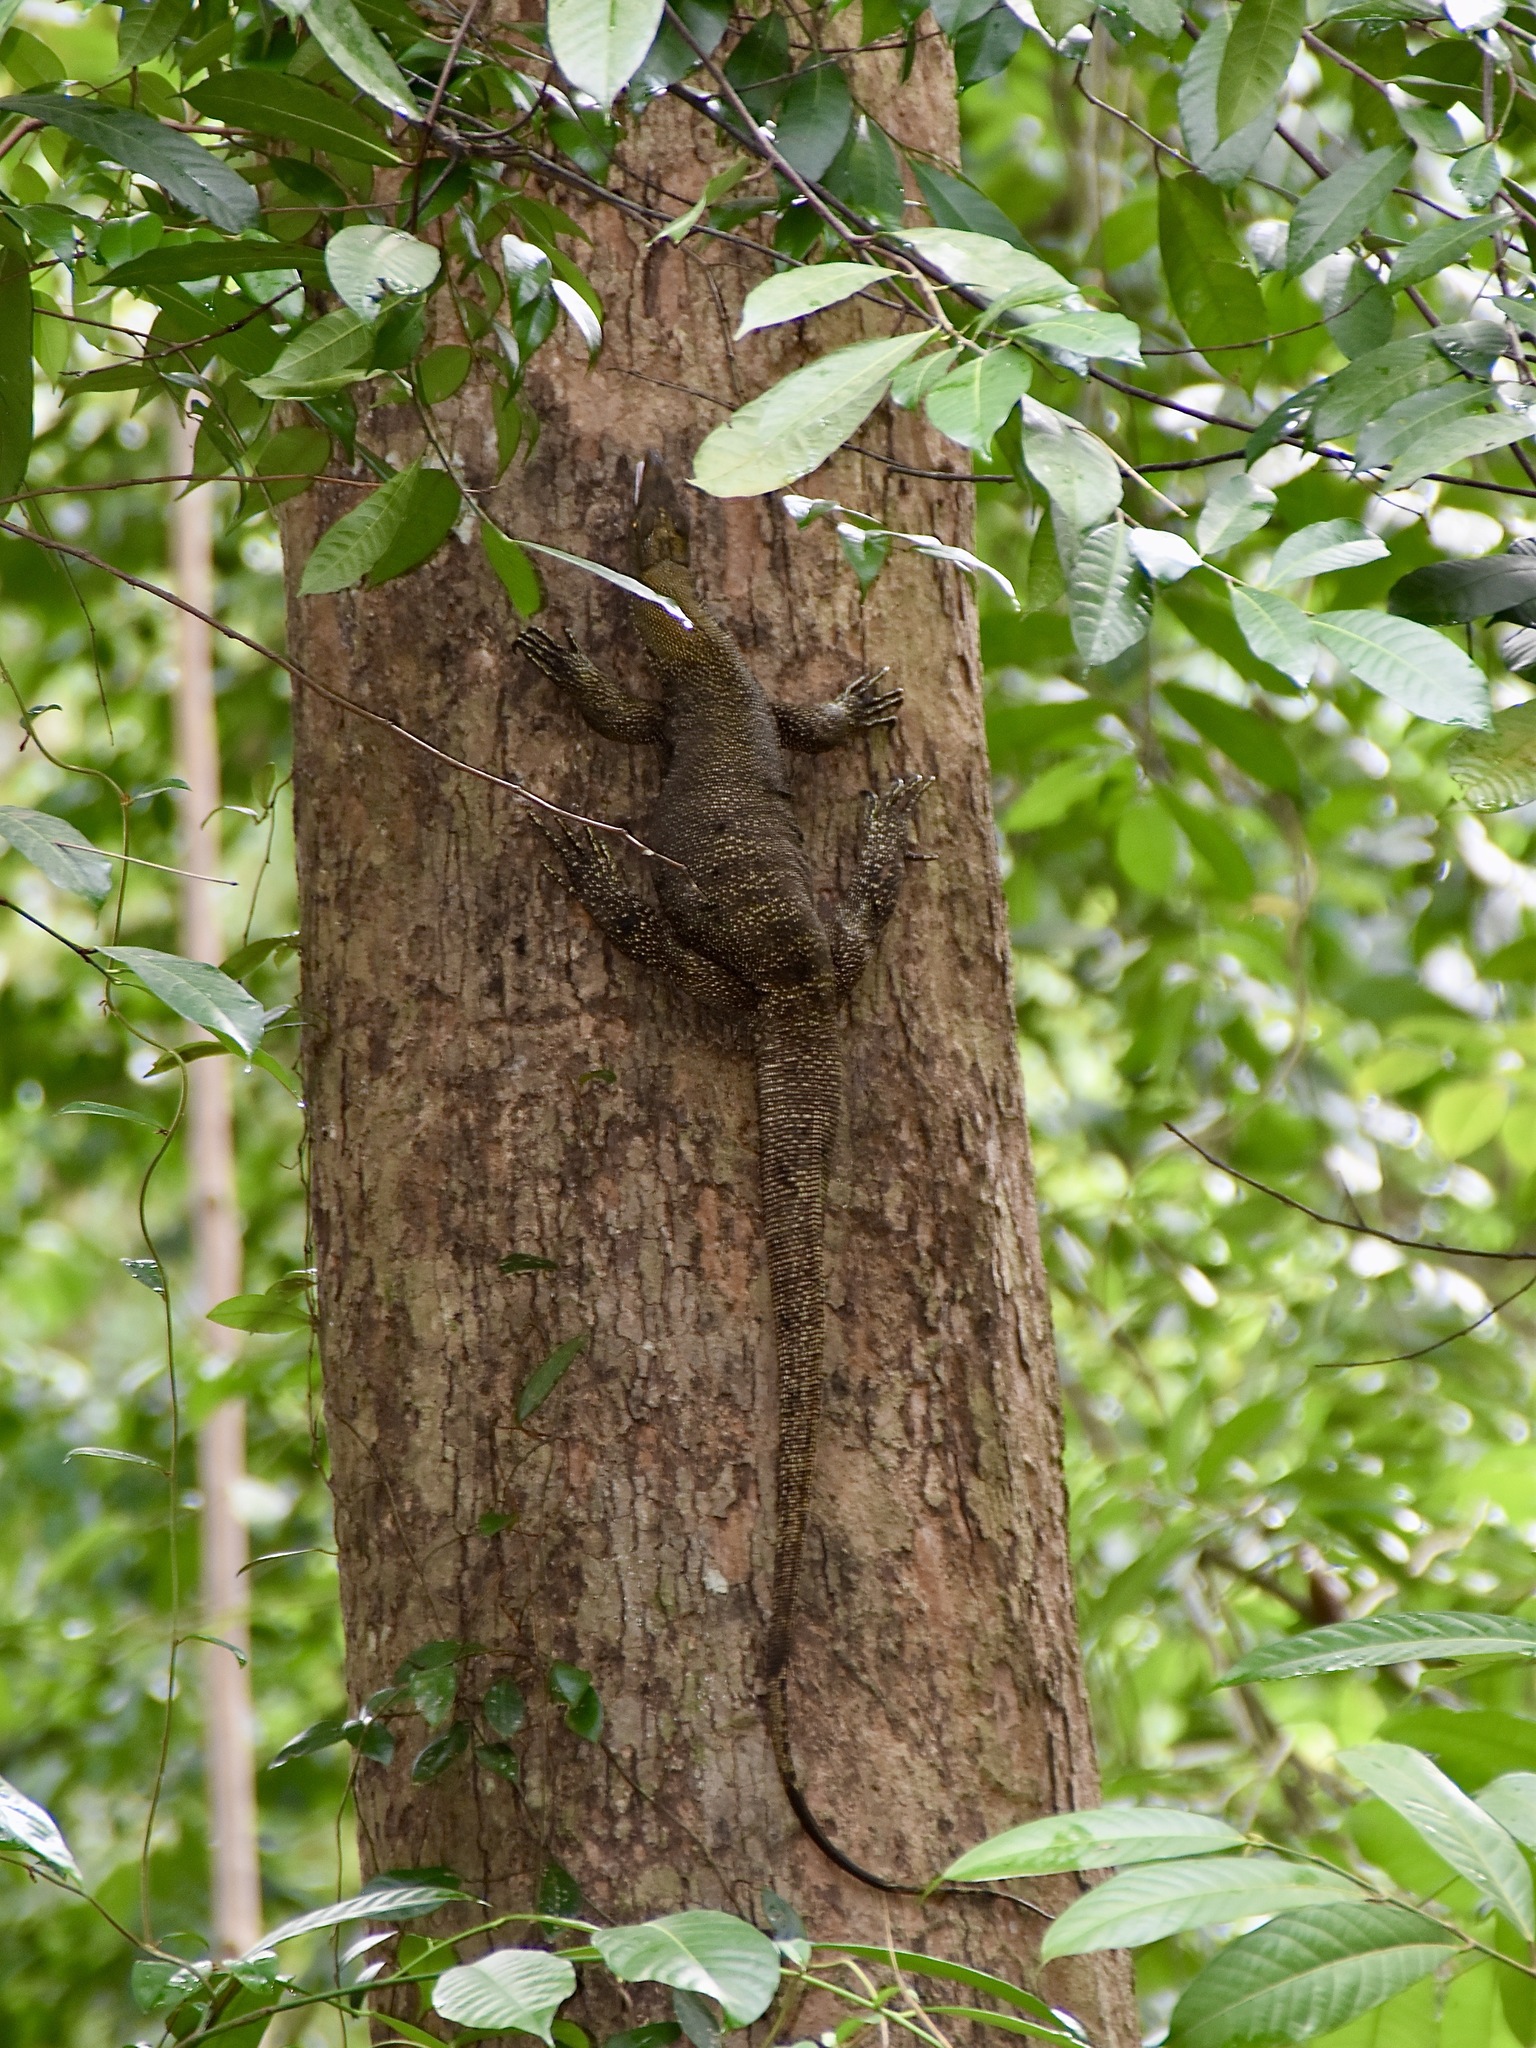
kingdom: Animalia
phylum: Chordata
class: Squamata
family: Varanidae
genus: Varanus
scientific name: Varanus nebulosus
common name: Clouded monitor
